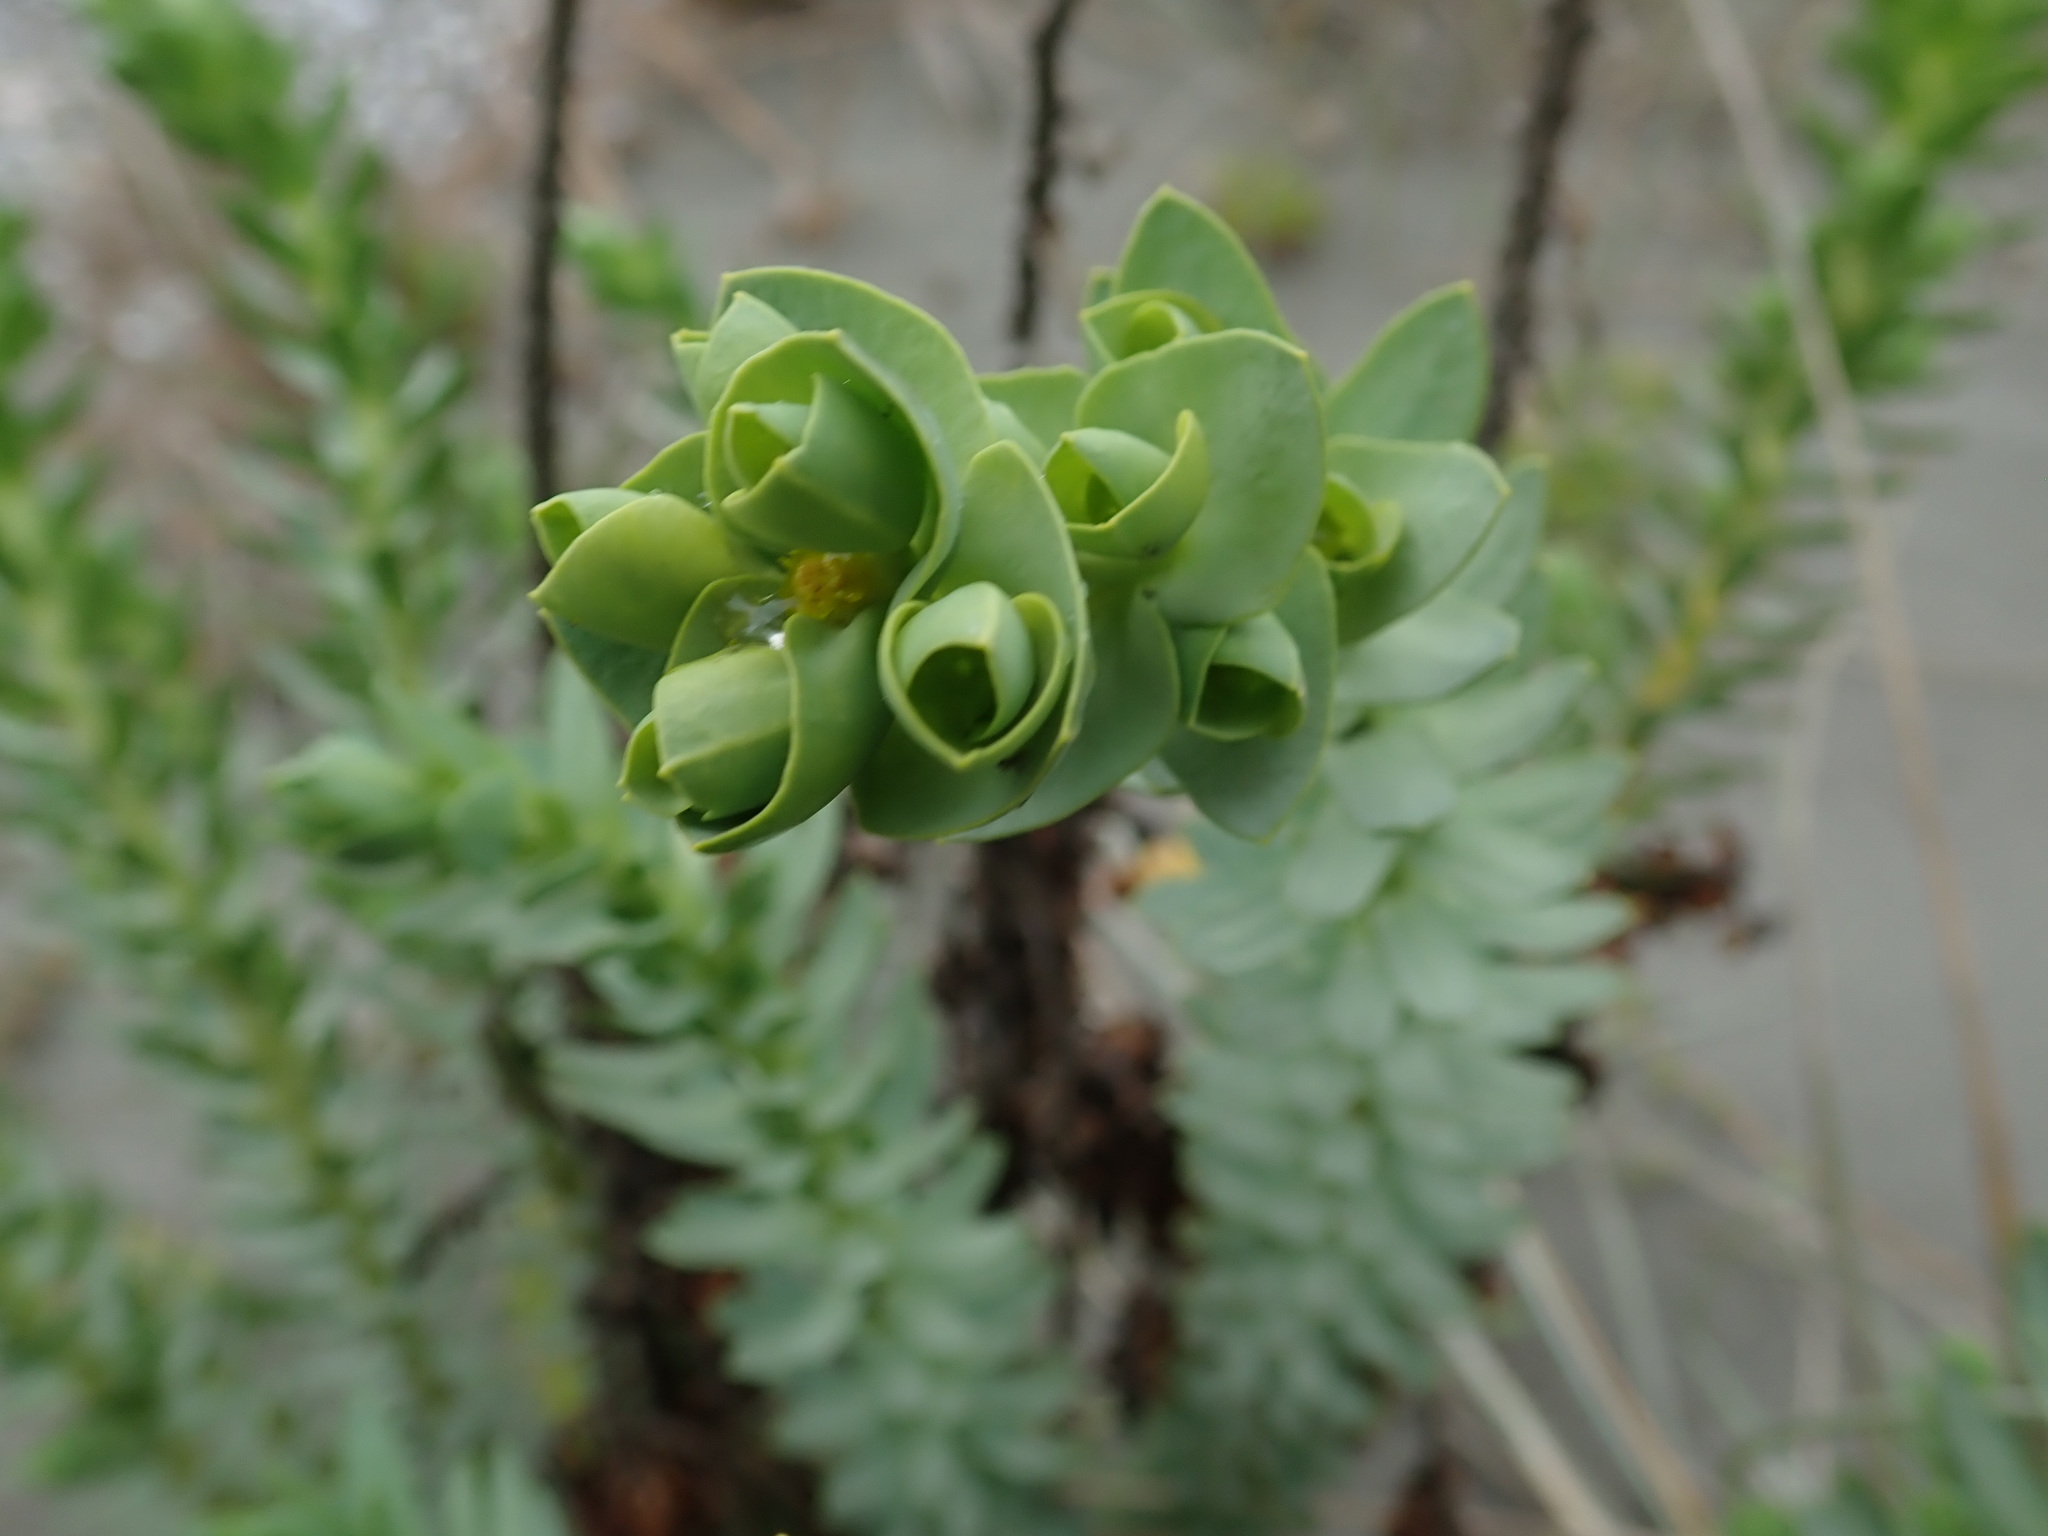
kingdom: Plantae
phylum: Tracheophyta
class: Magnoliopsida
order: Malpighiales
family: Euphorbiaceae
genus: Euphorbia
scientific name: Euphorbia paralias
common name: Sea spurge
